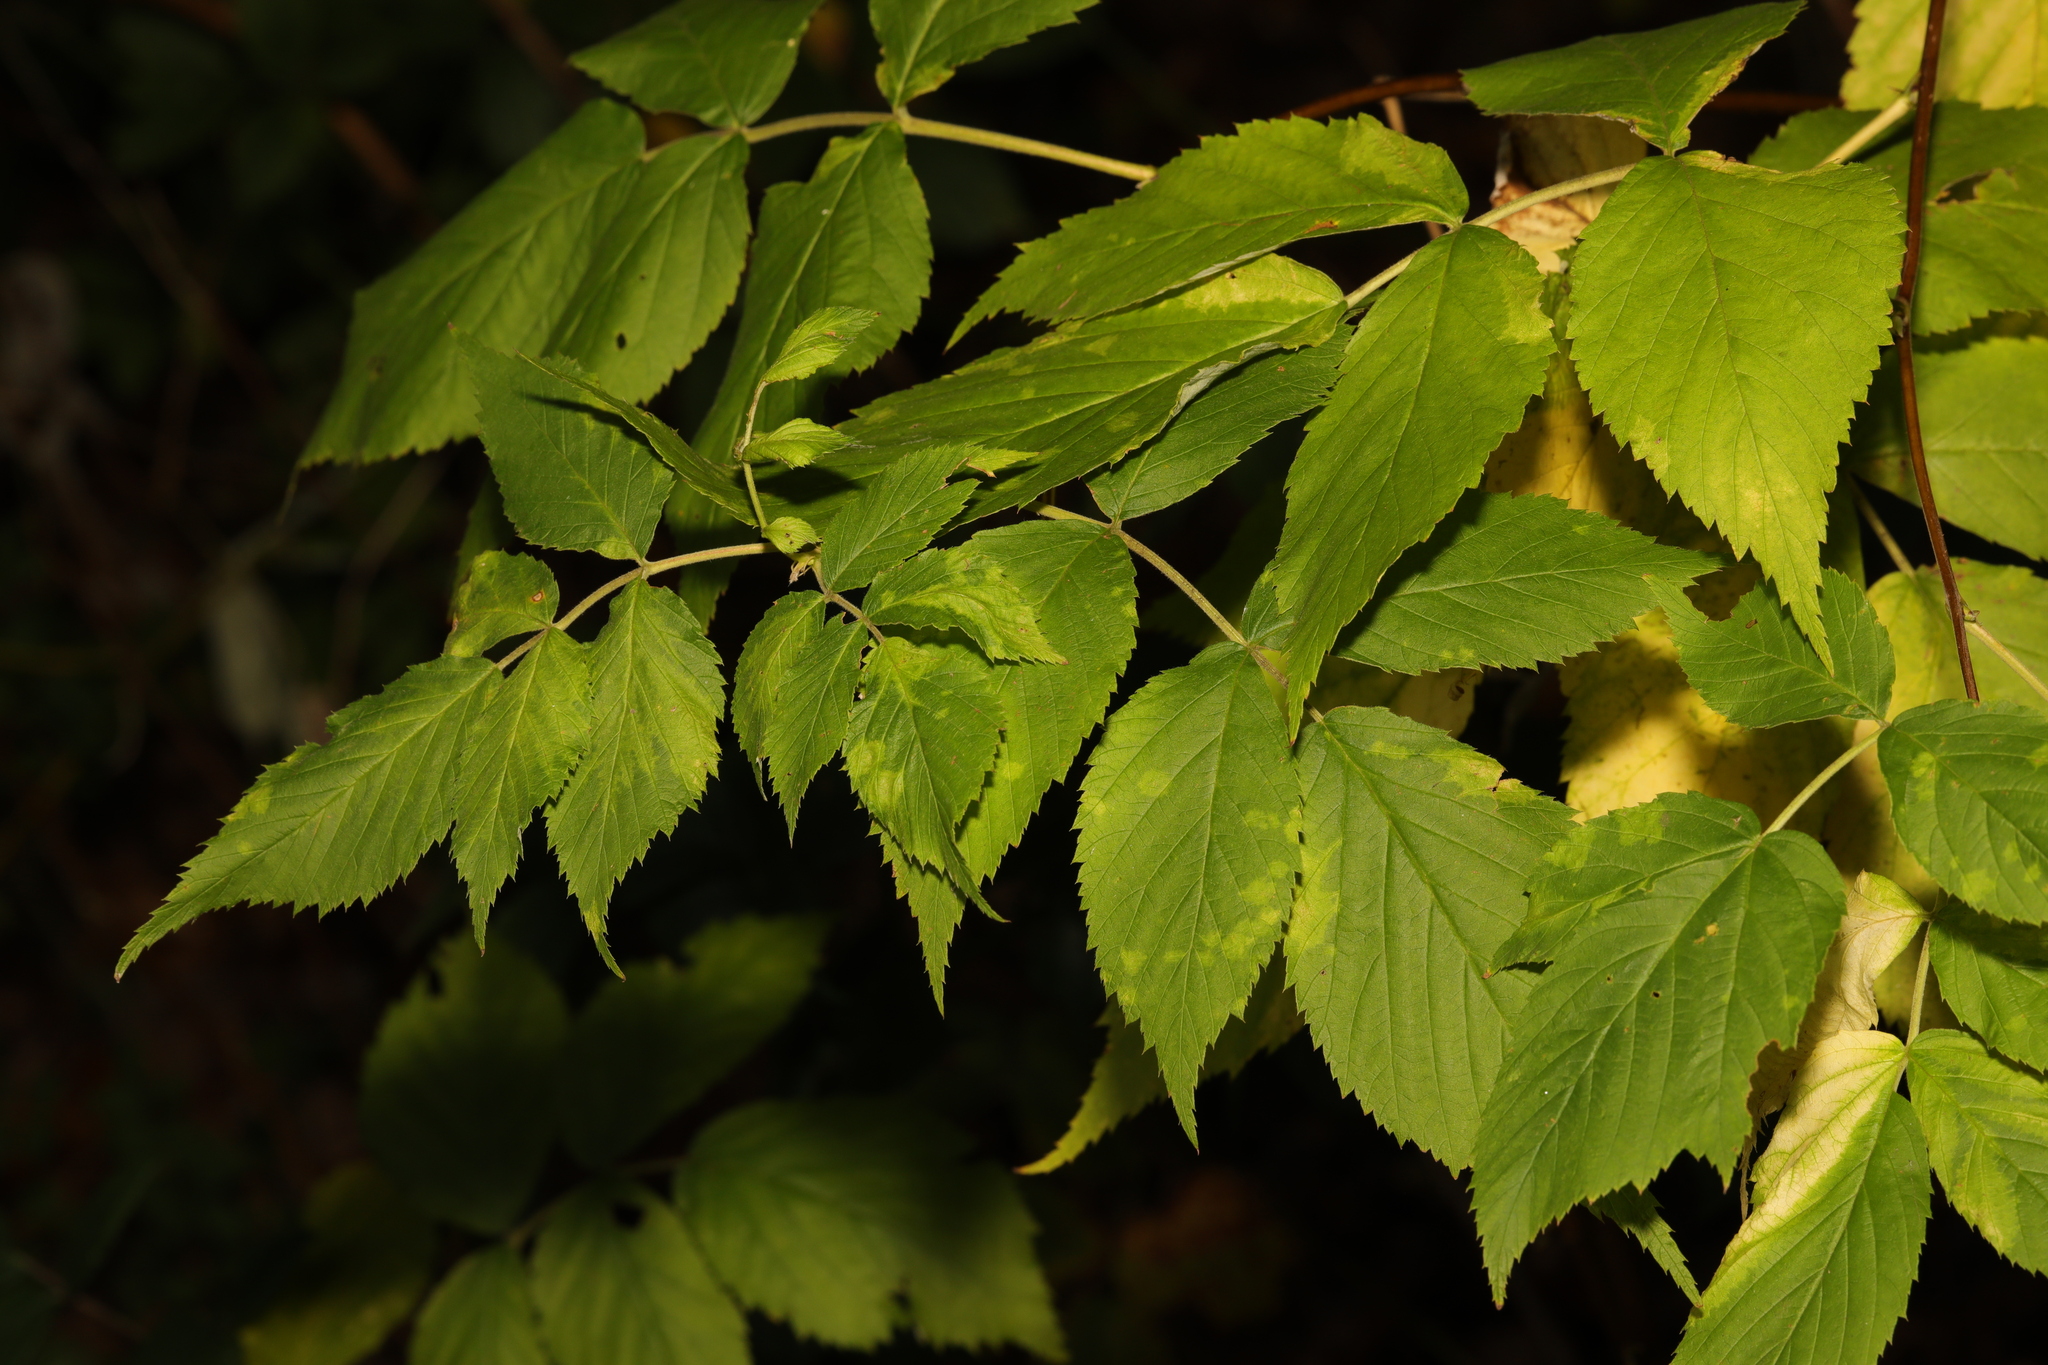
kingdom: Plantae
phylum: Tracheophyta
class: Magnoliopsida
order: Rosales
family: Rosaceae
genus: Rubus
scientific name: Rubus idaeus
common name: Raspberry
